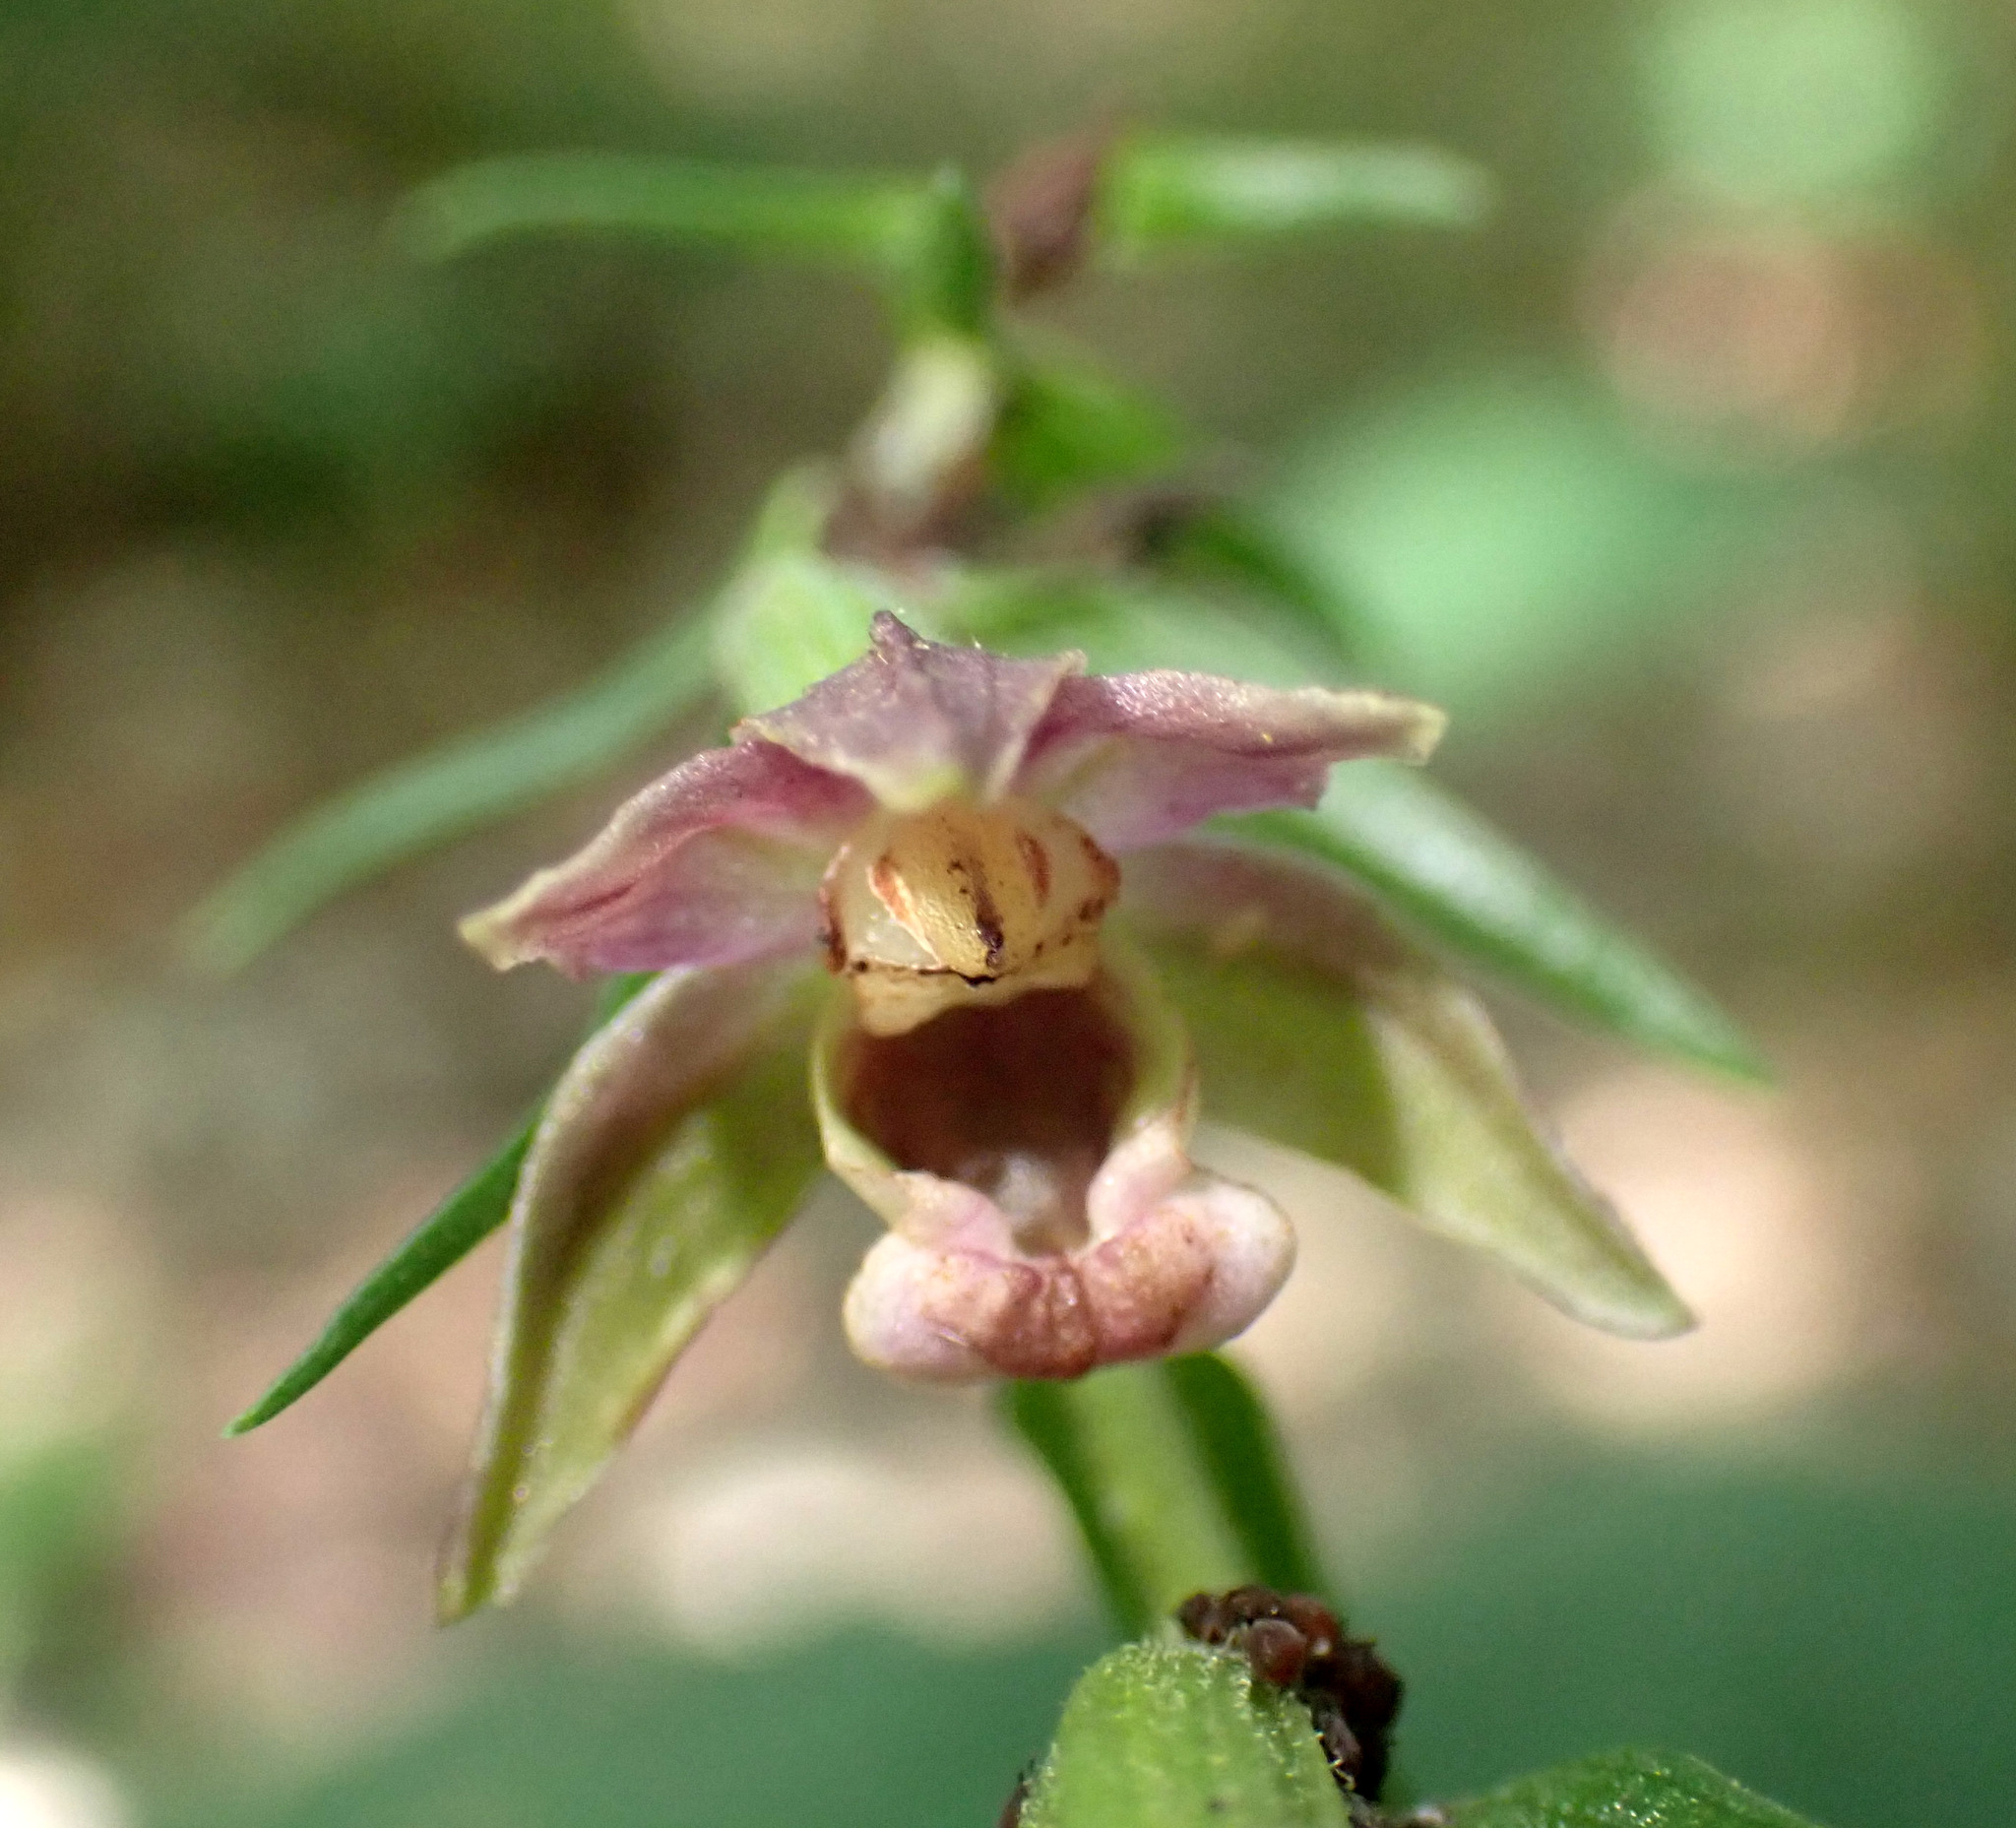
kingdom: Plantae
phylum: Tracheophyta
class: Liliopsida
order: Asparagales
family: Orchidaceae
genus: Epipactis
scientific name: Epipactis helleborine
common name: Broad-leaved helleborine
